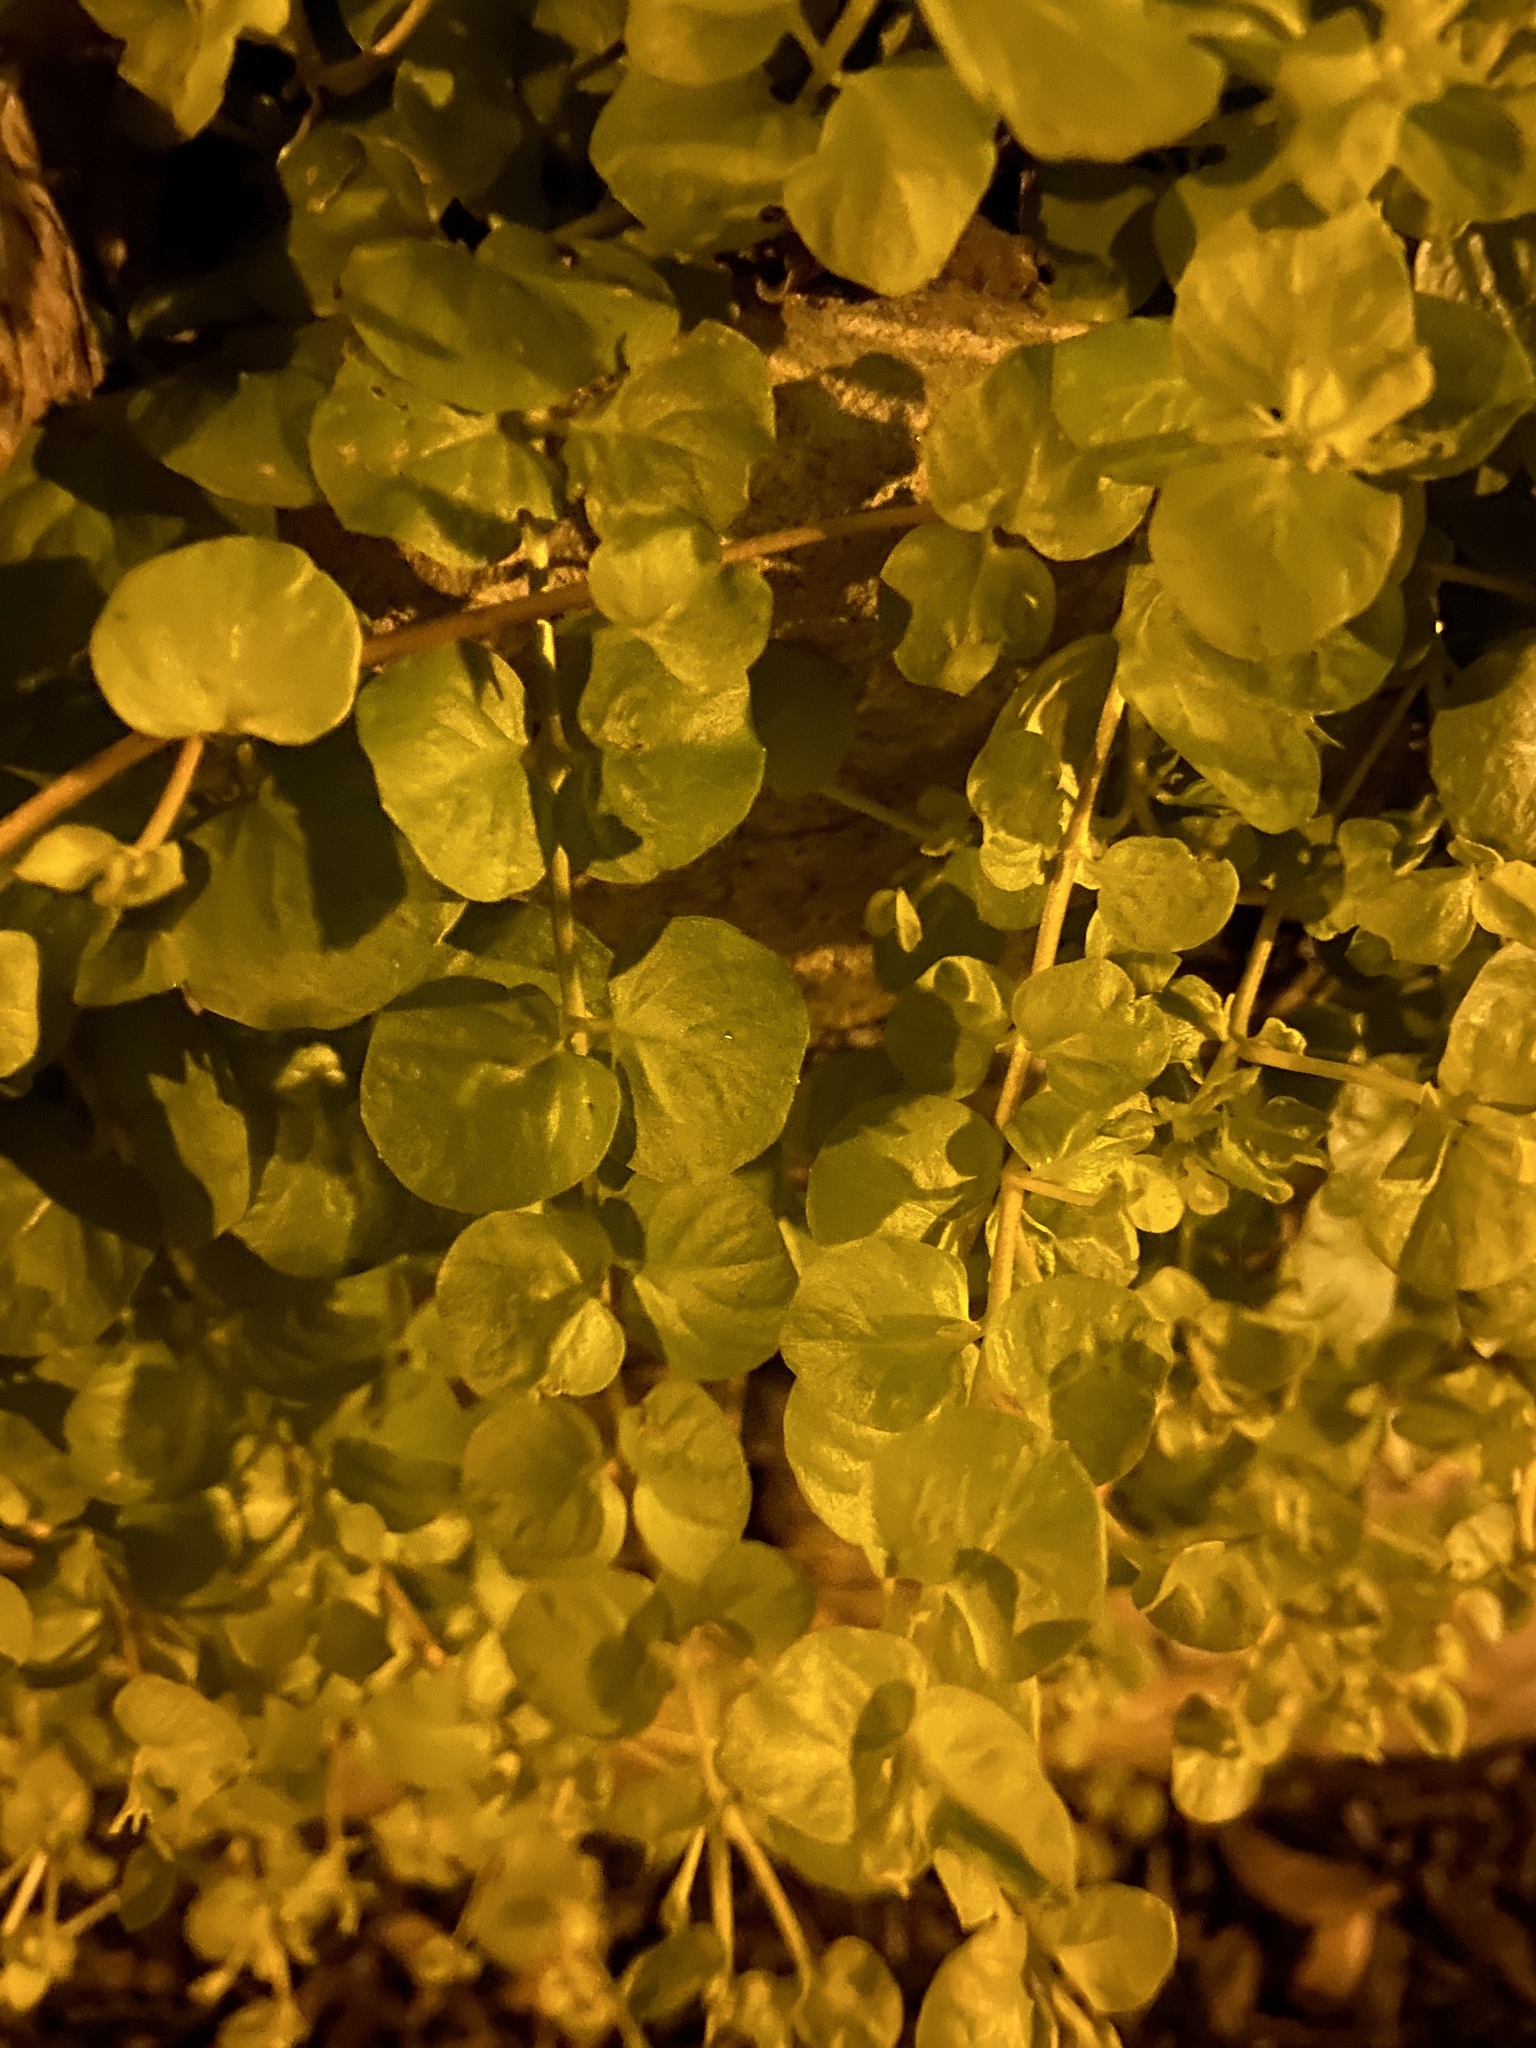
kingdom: Plantae
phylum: Tracheophyta
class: Magnoliopsida
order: Ericales
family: Primulaceae
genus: Lysimachia
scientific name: Lysimachia nummularia
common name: Moneywort
